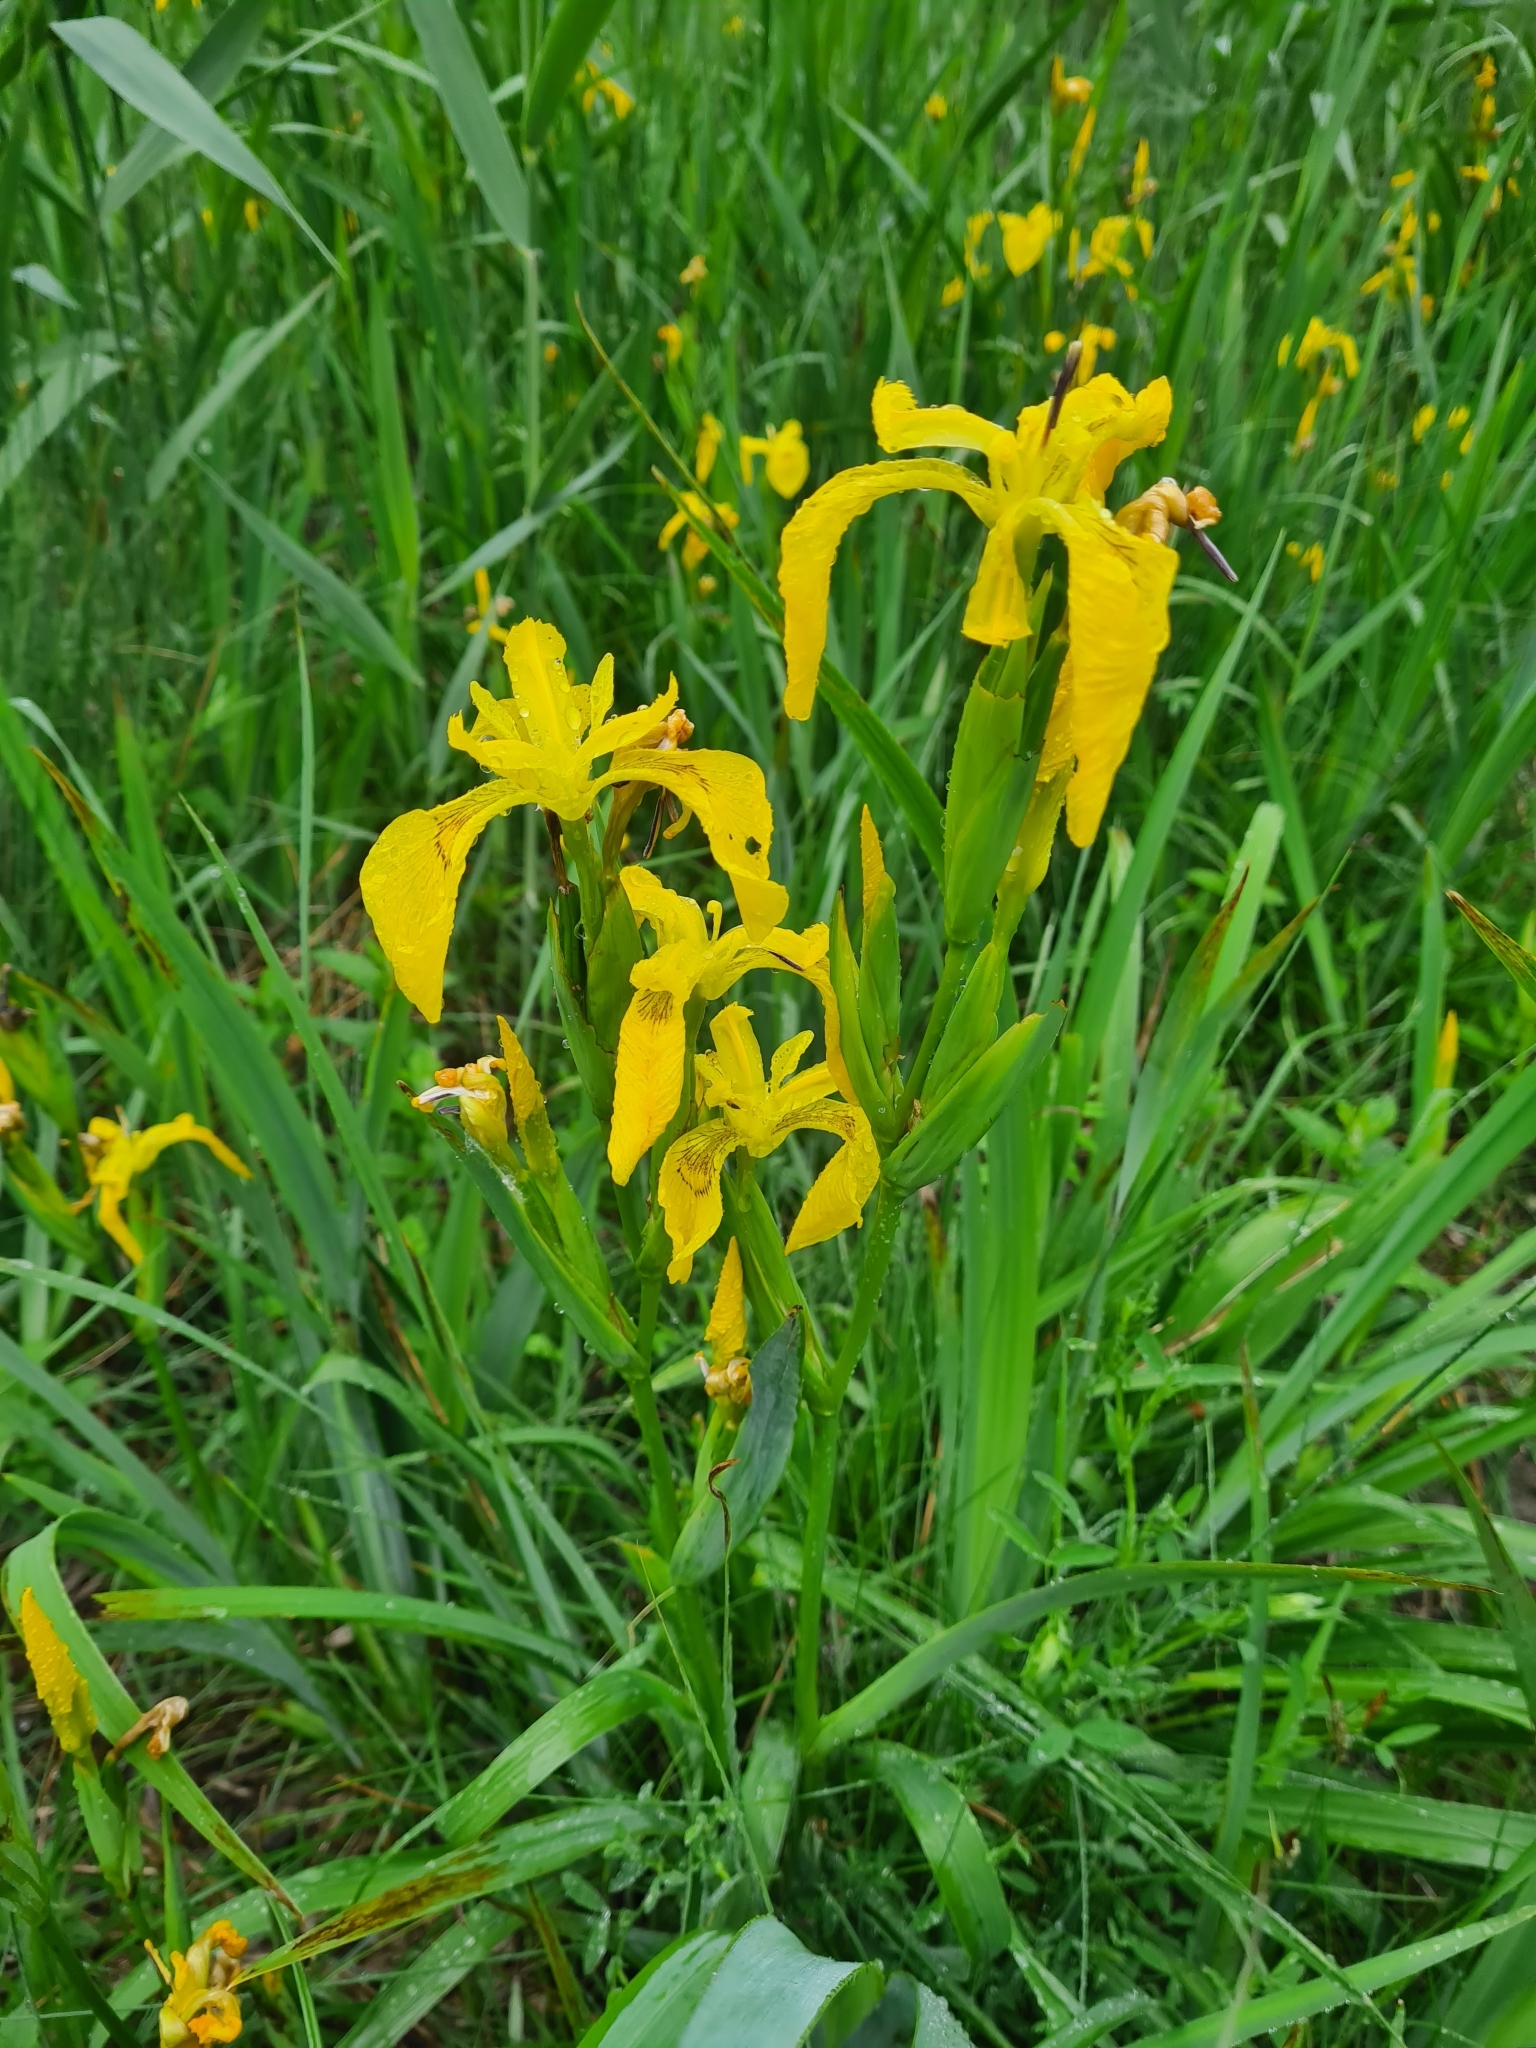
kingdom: Plantae
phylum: Tracheophyta
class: Liliopsida
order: Asparagales
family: Iridaceae
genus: Iris
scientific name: Iris pseudacorus
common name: Yellow flag
